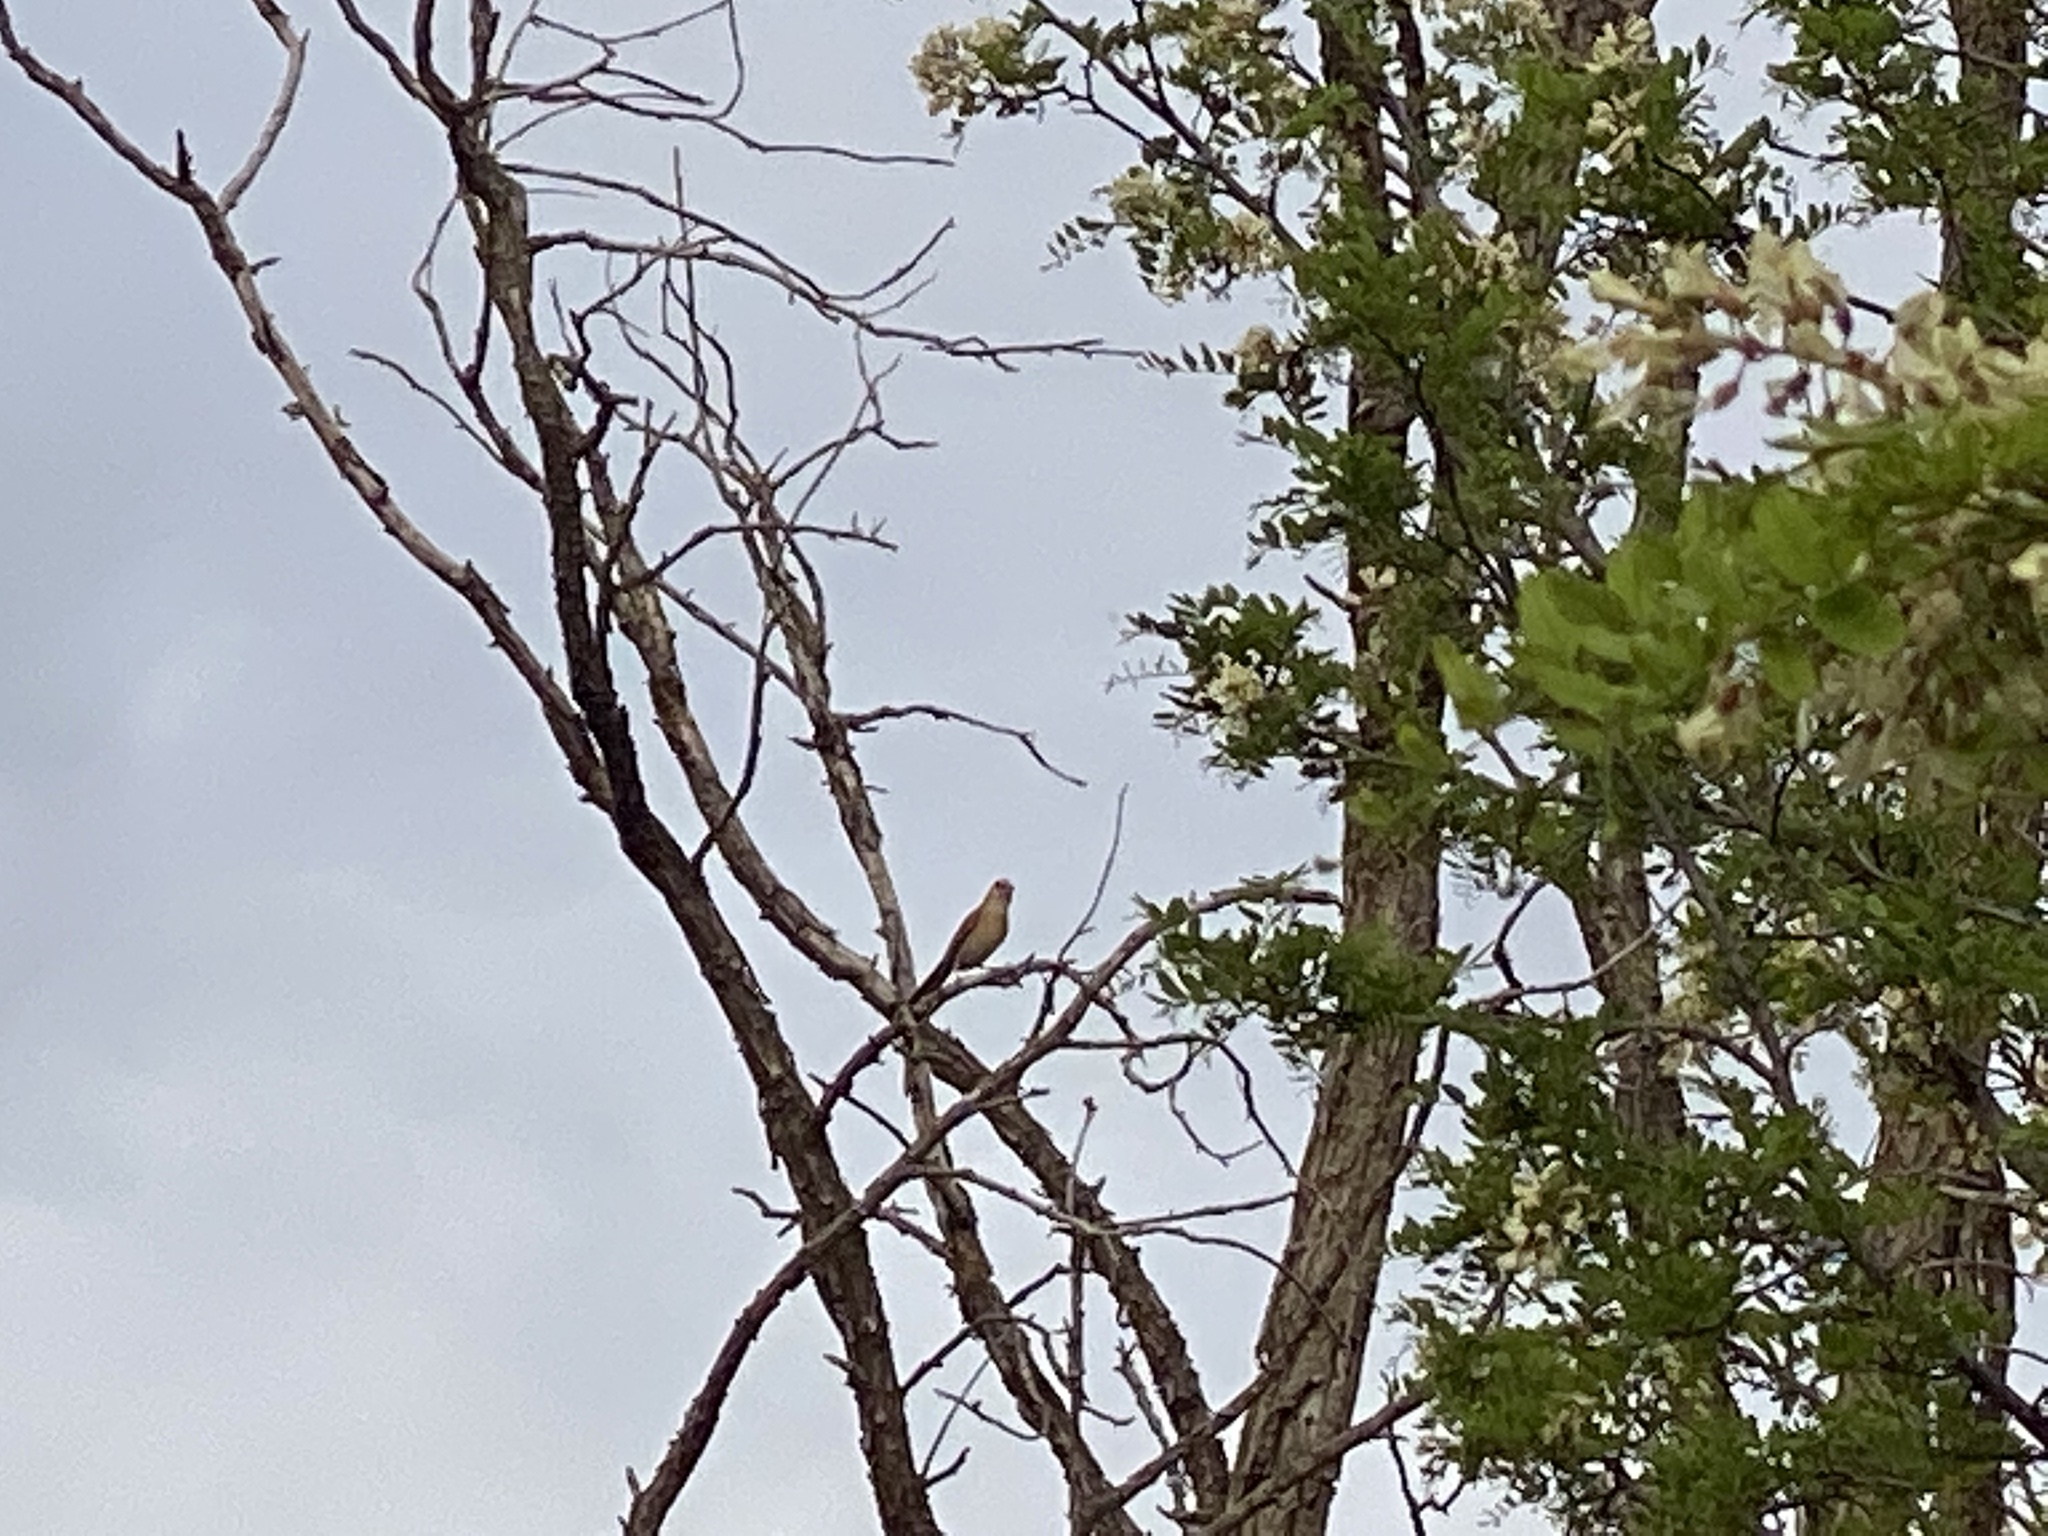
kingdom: Animalia
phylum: Chordata
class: Aves
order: Passeriformes
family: Cardinalidae
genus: Cardinalis
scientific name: Cardinalis cardinalis
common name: Northern cardinal
